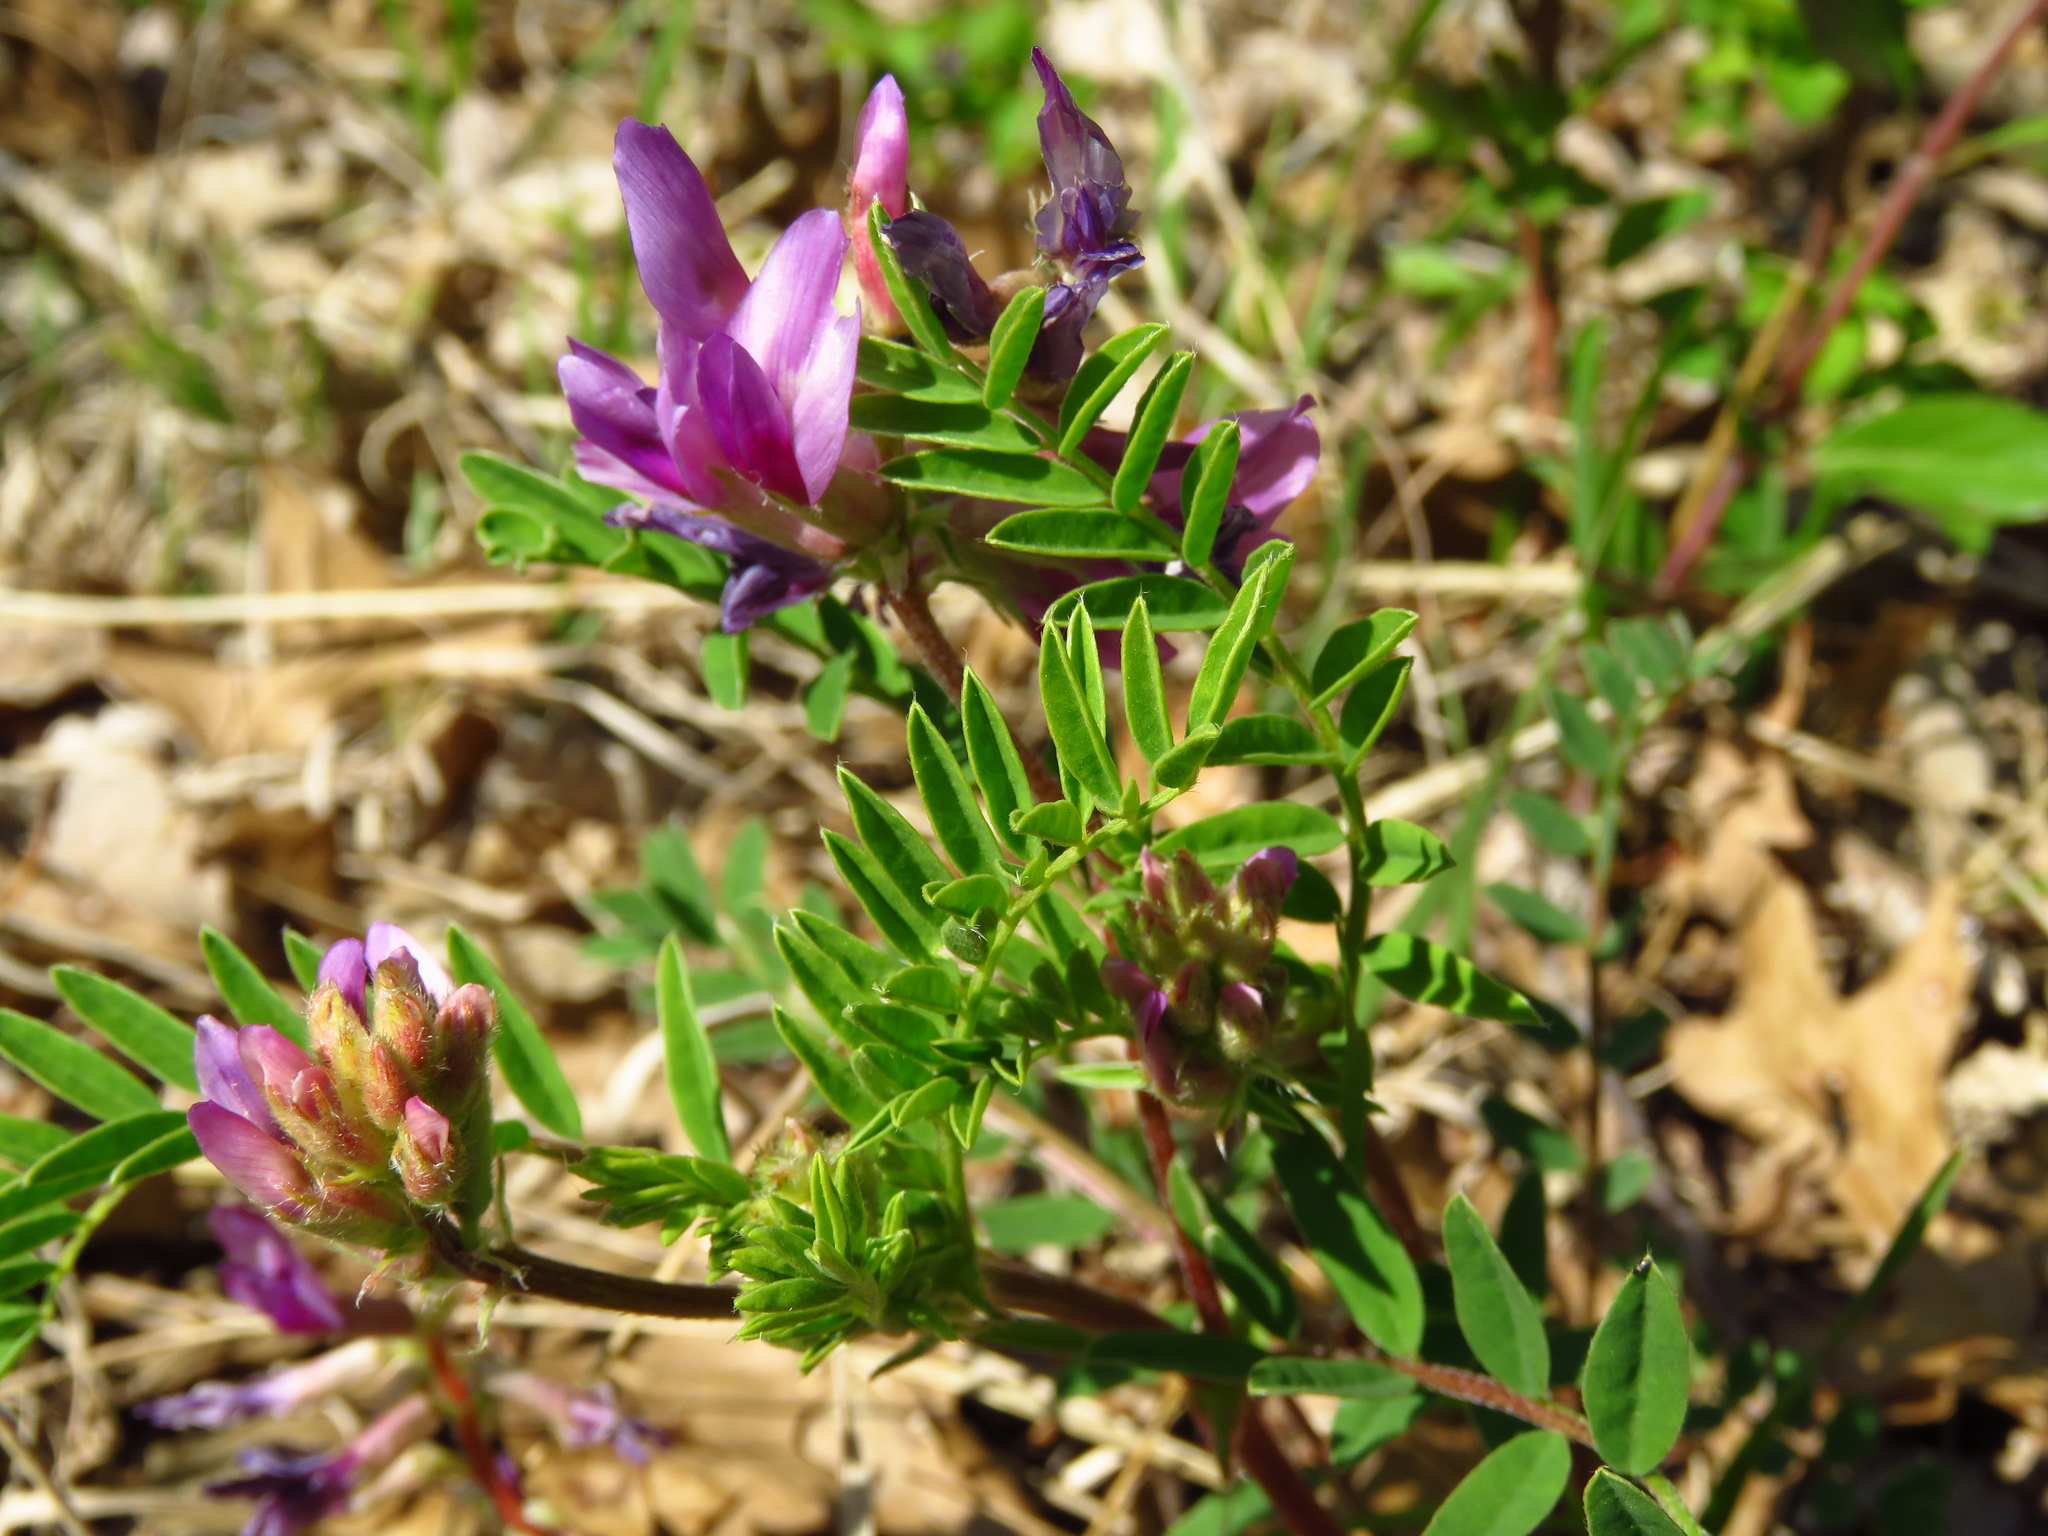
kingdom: Plantae
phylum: Tracheophyta
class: Magnoliopsida
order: Fabales
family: Fabaceae
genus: Astragalus
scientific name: Astragalus crassicarpus
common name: Ground-plum milk-vetch
